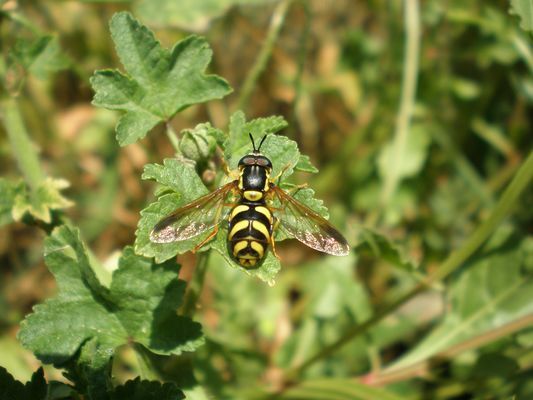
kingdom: Animalia
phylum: Arthropoda
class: Insecta
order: Diptera
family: Syrphidae
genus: Chrysotoxum
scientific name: Chrysotoxum intermedium
